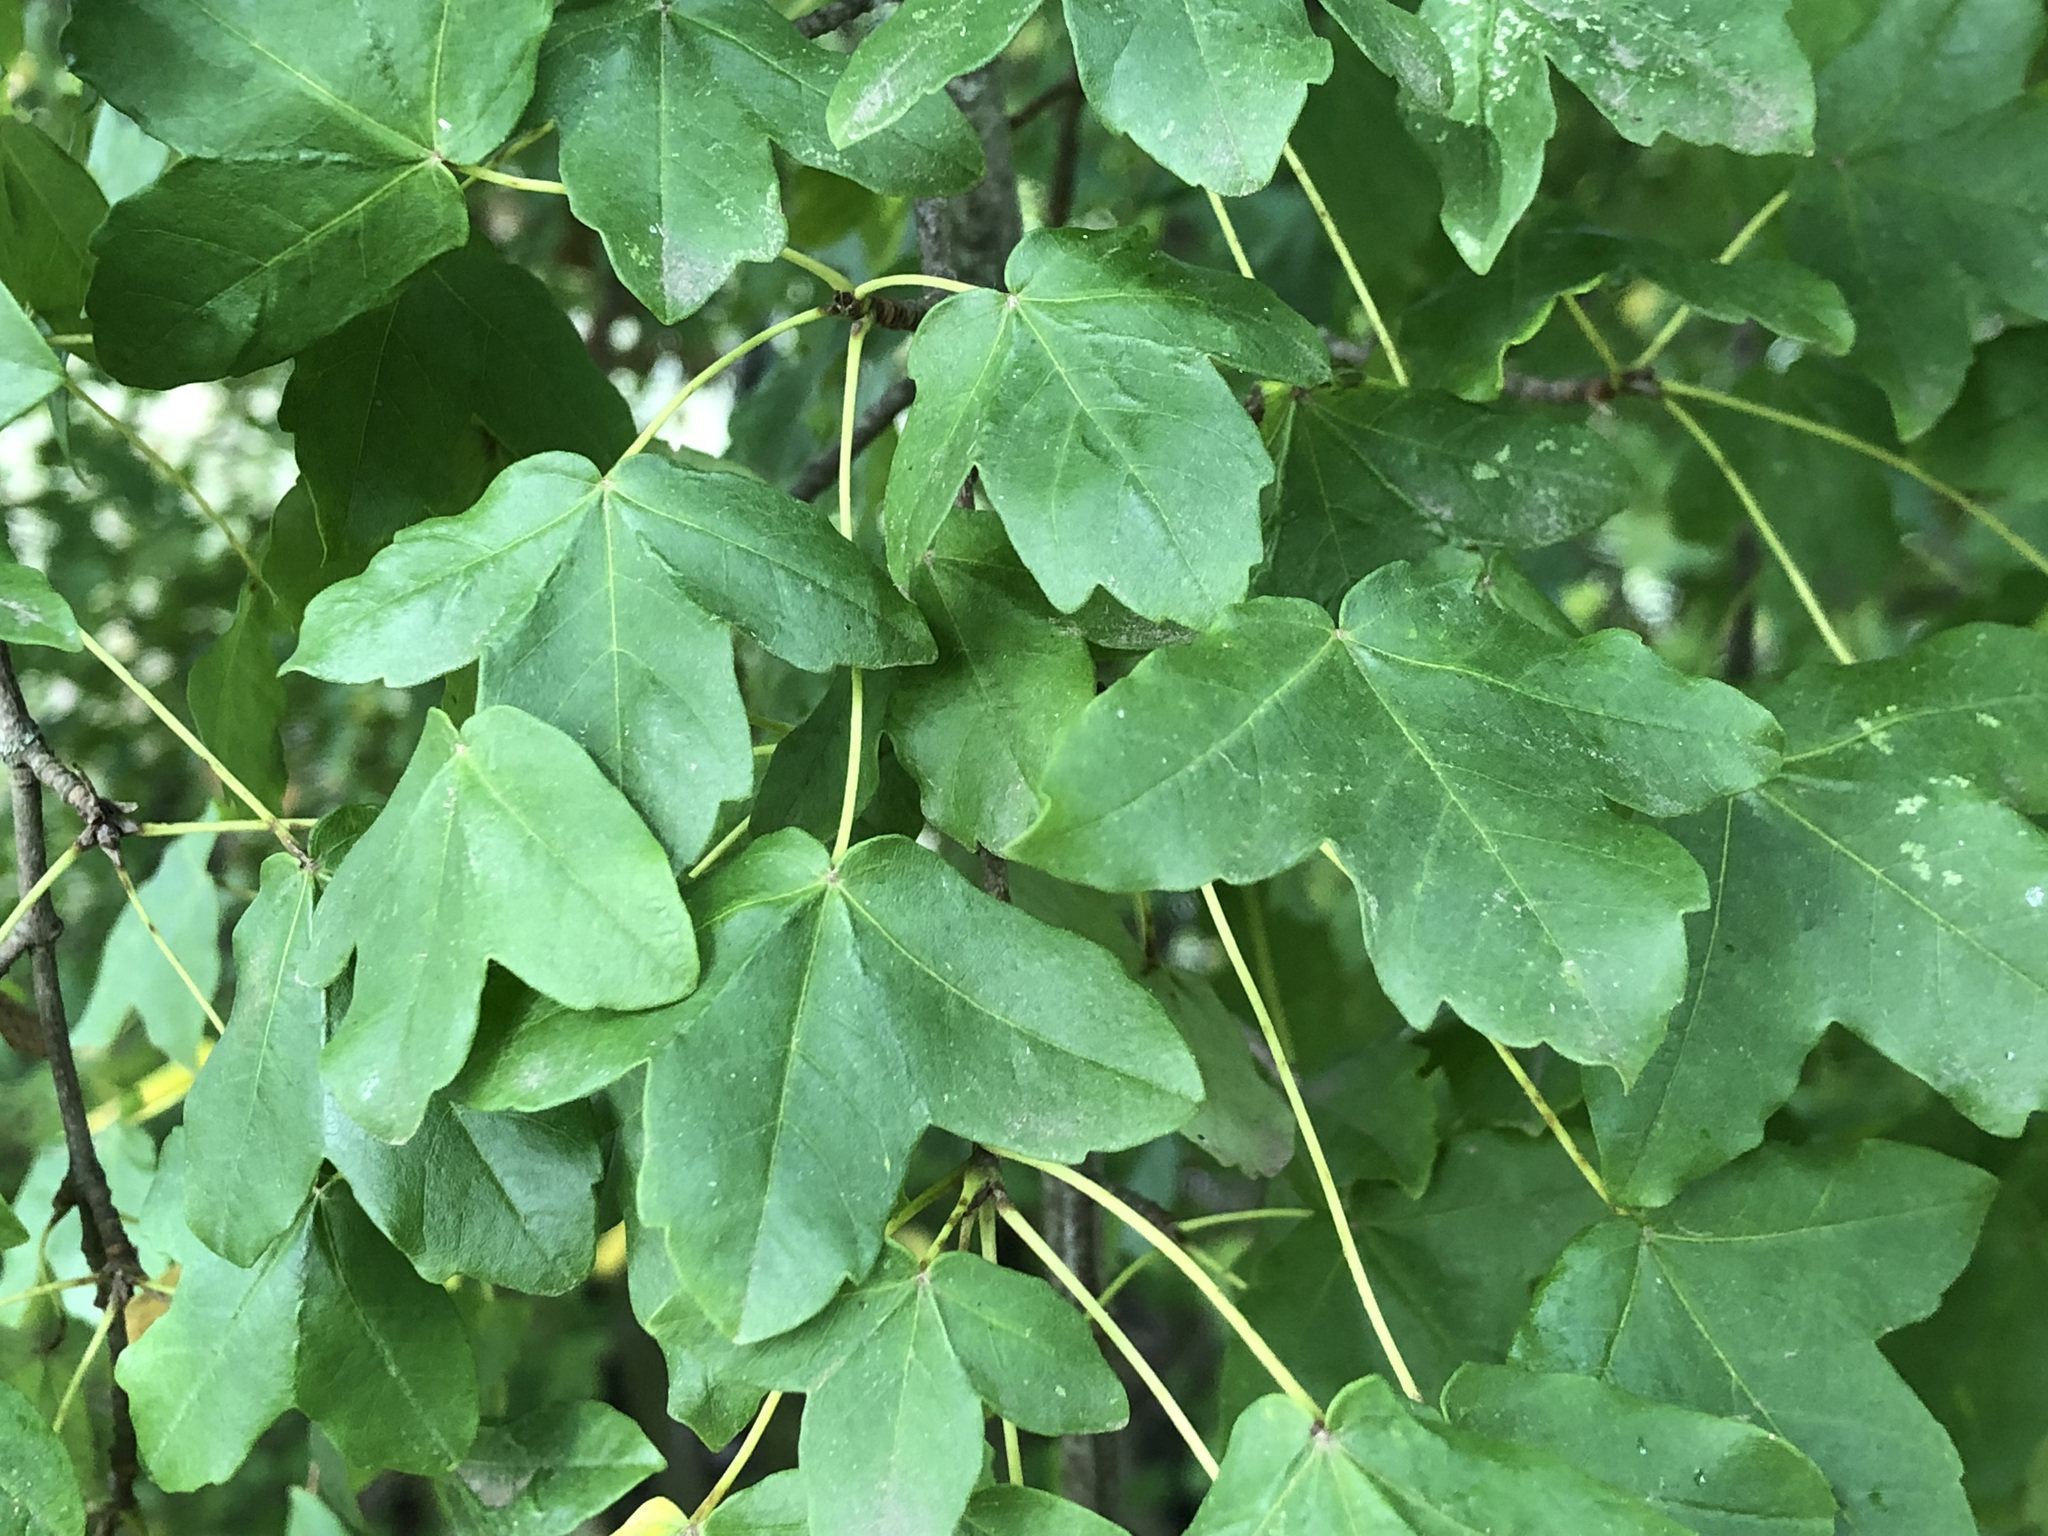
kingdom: Plantae
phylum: Tracheophyta
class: Magnoliopsida
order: Sapindales
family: Sapindaceae
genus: Acer
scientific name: Acer campestre
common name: Field maple
